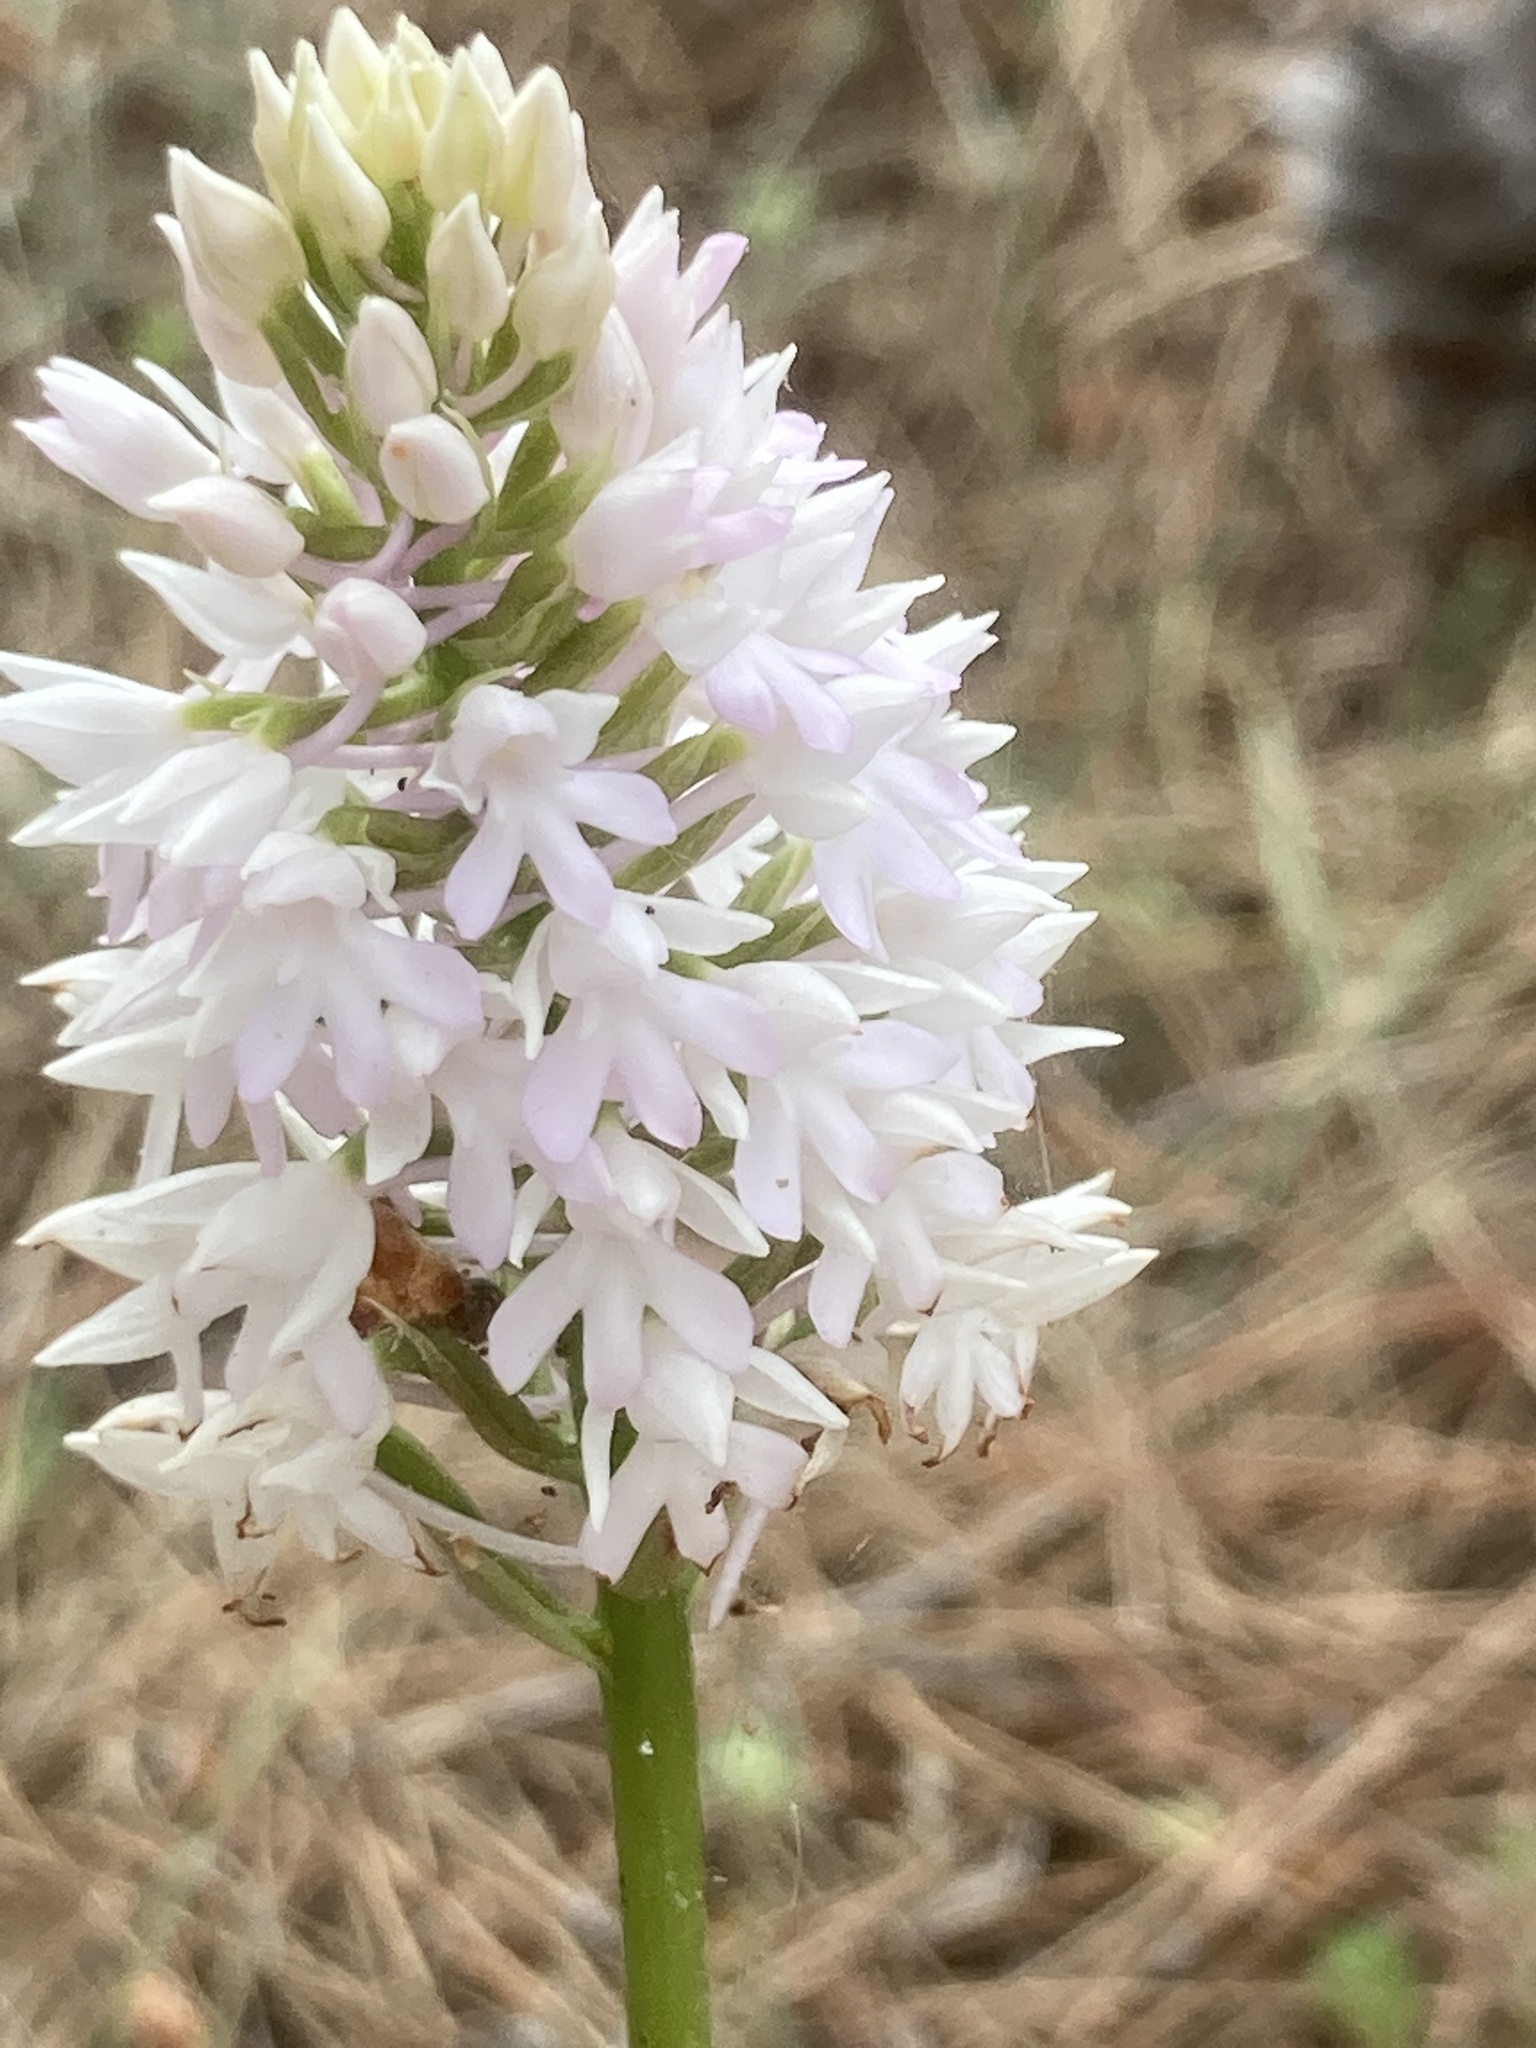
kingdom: Plantae
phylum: Tracheophyta
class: Liliopsida
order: Asparagales
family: Orchidaceae
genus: Anacamptis
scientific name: Anacamptis pyramidalis
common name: Pyramidal orchid
